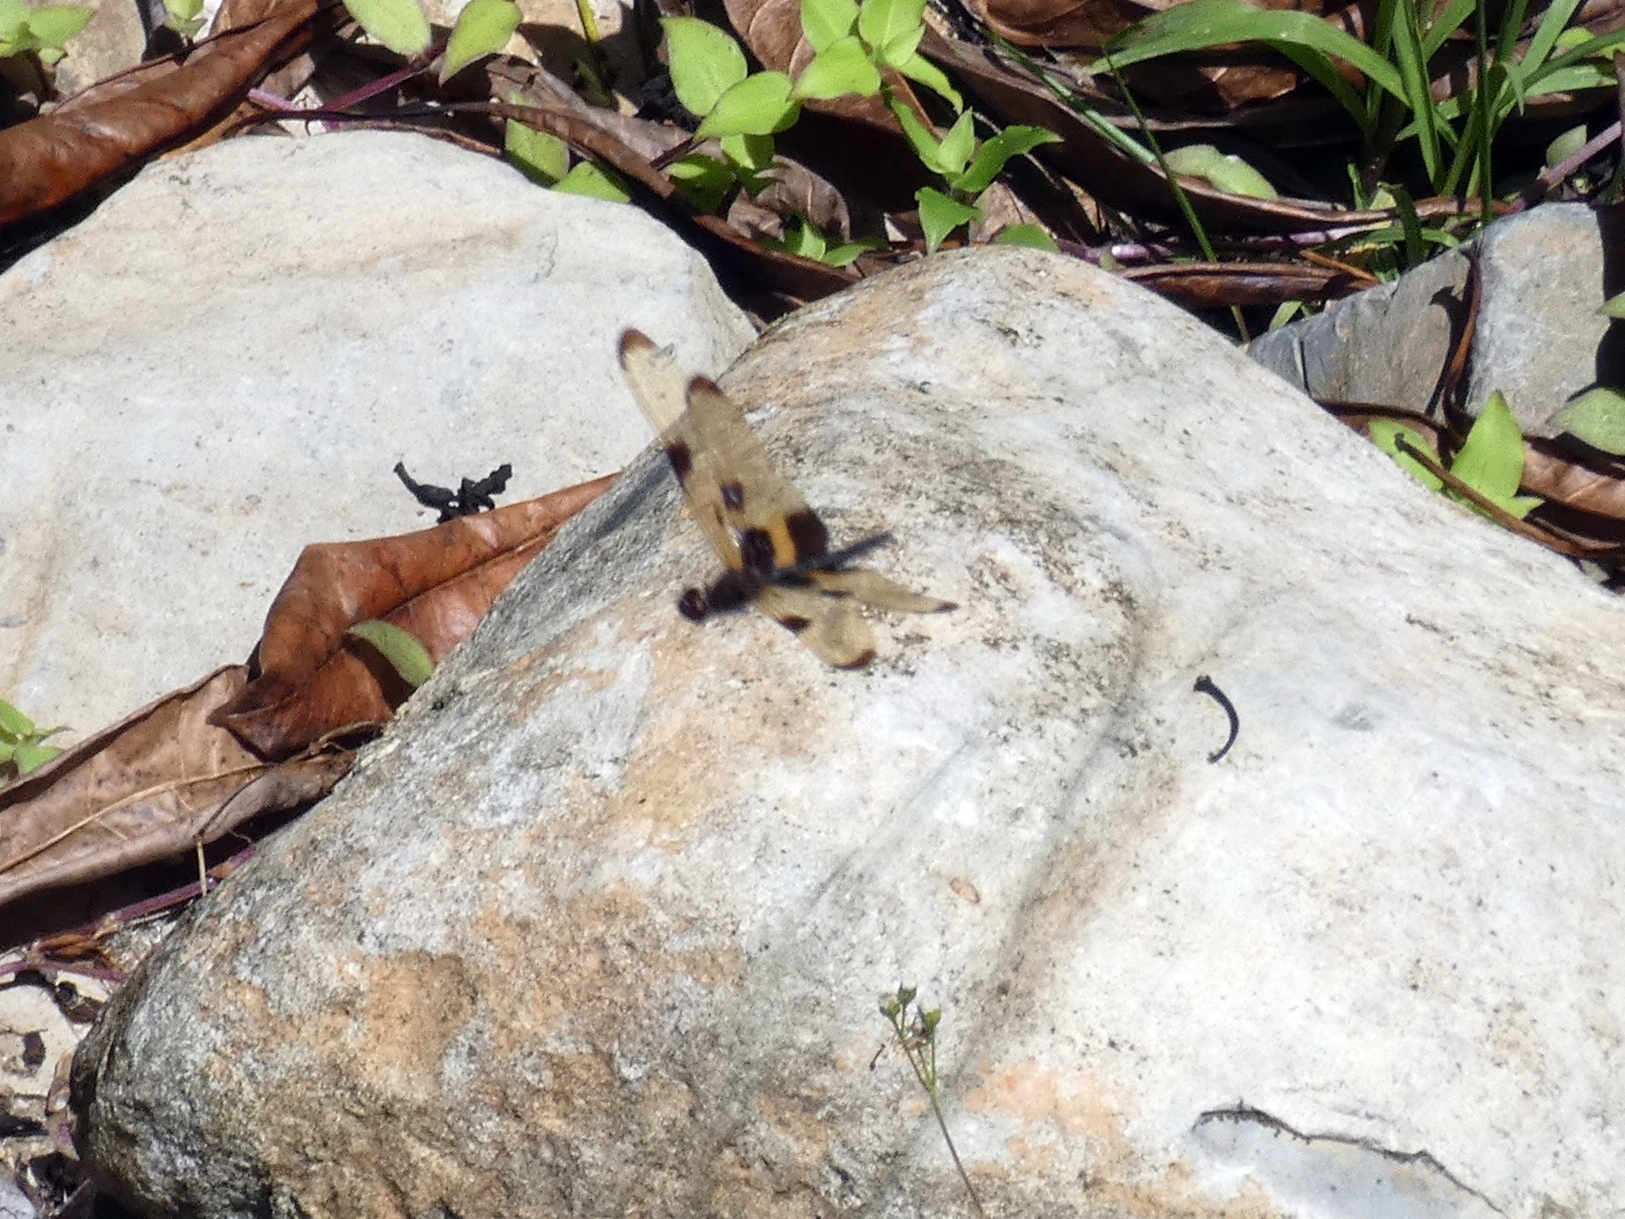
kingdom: Animalia
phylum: Arthropoda
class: Insecta
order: Odonata
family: Libellulidae
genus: Rhyothemis
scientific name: Rhyothemis phyllis
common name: Yellow-barred flutterer
